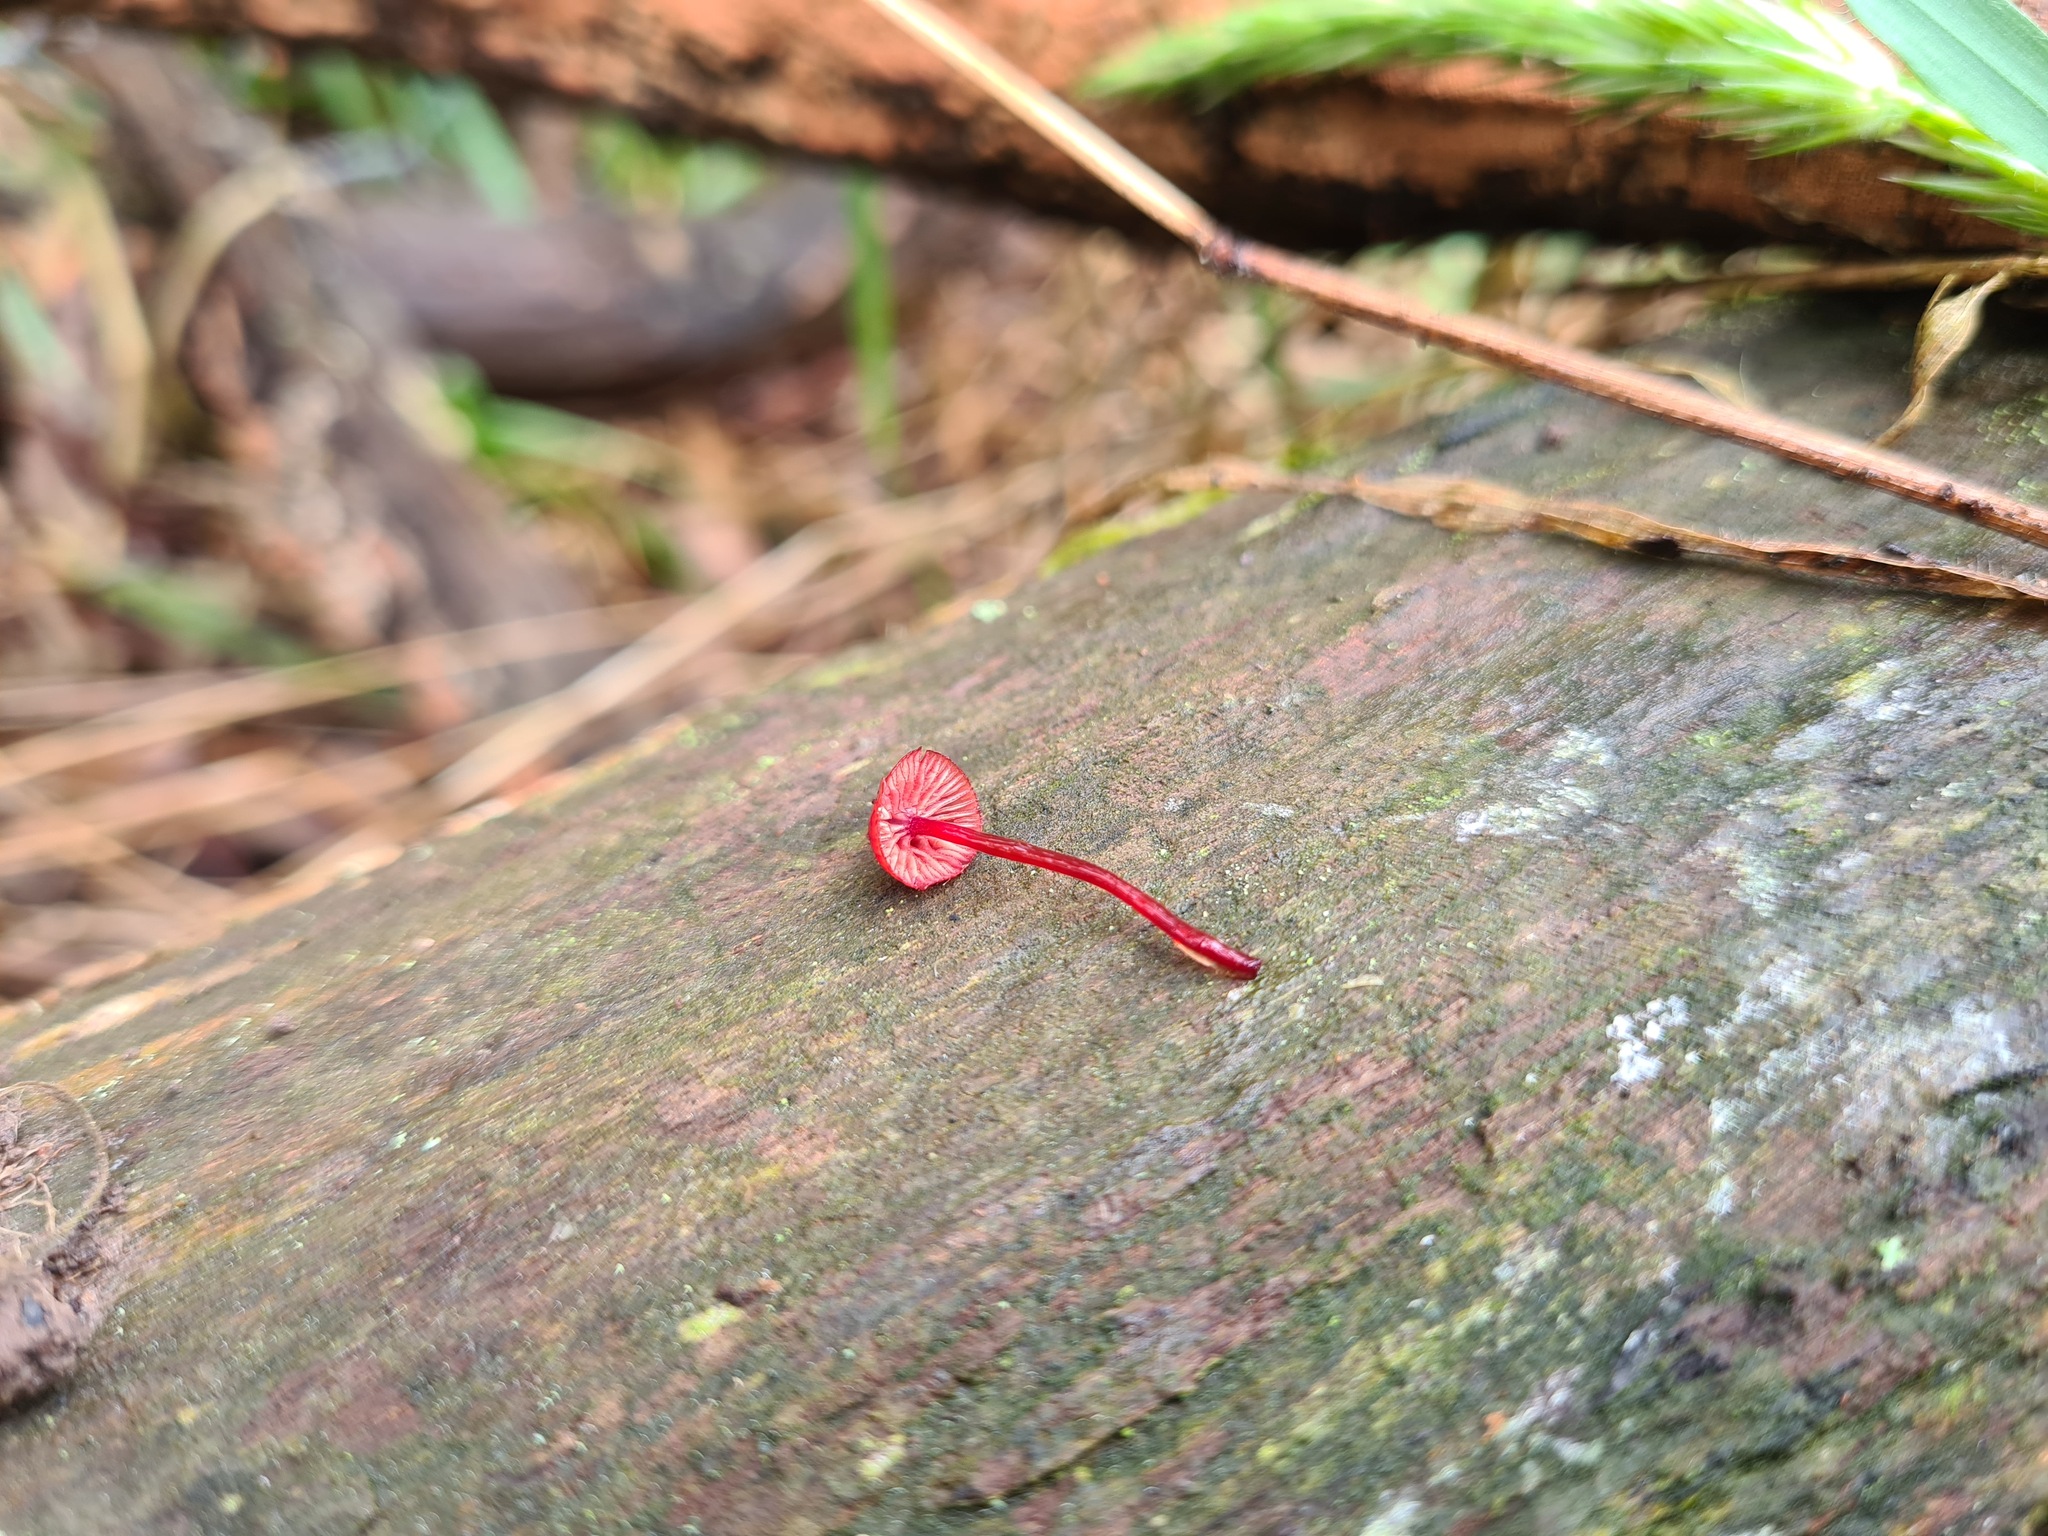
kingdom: Fungi
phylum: Basidiomycota
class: Agaricomycetes
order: Agaricales
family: Mycenaceae
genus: Cruentomycena
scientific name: Cruentomycena viscidocruenta
